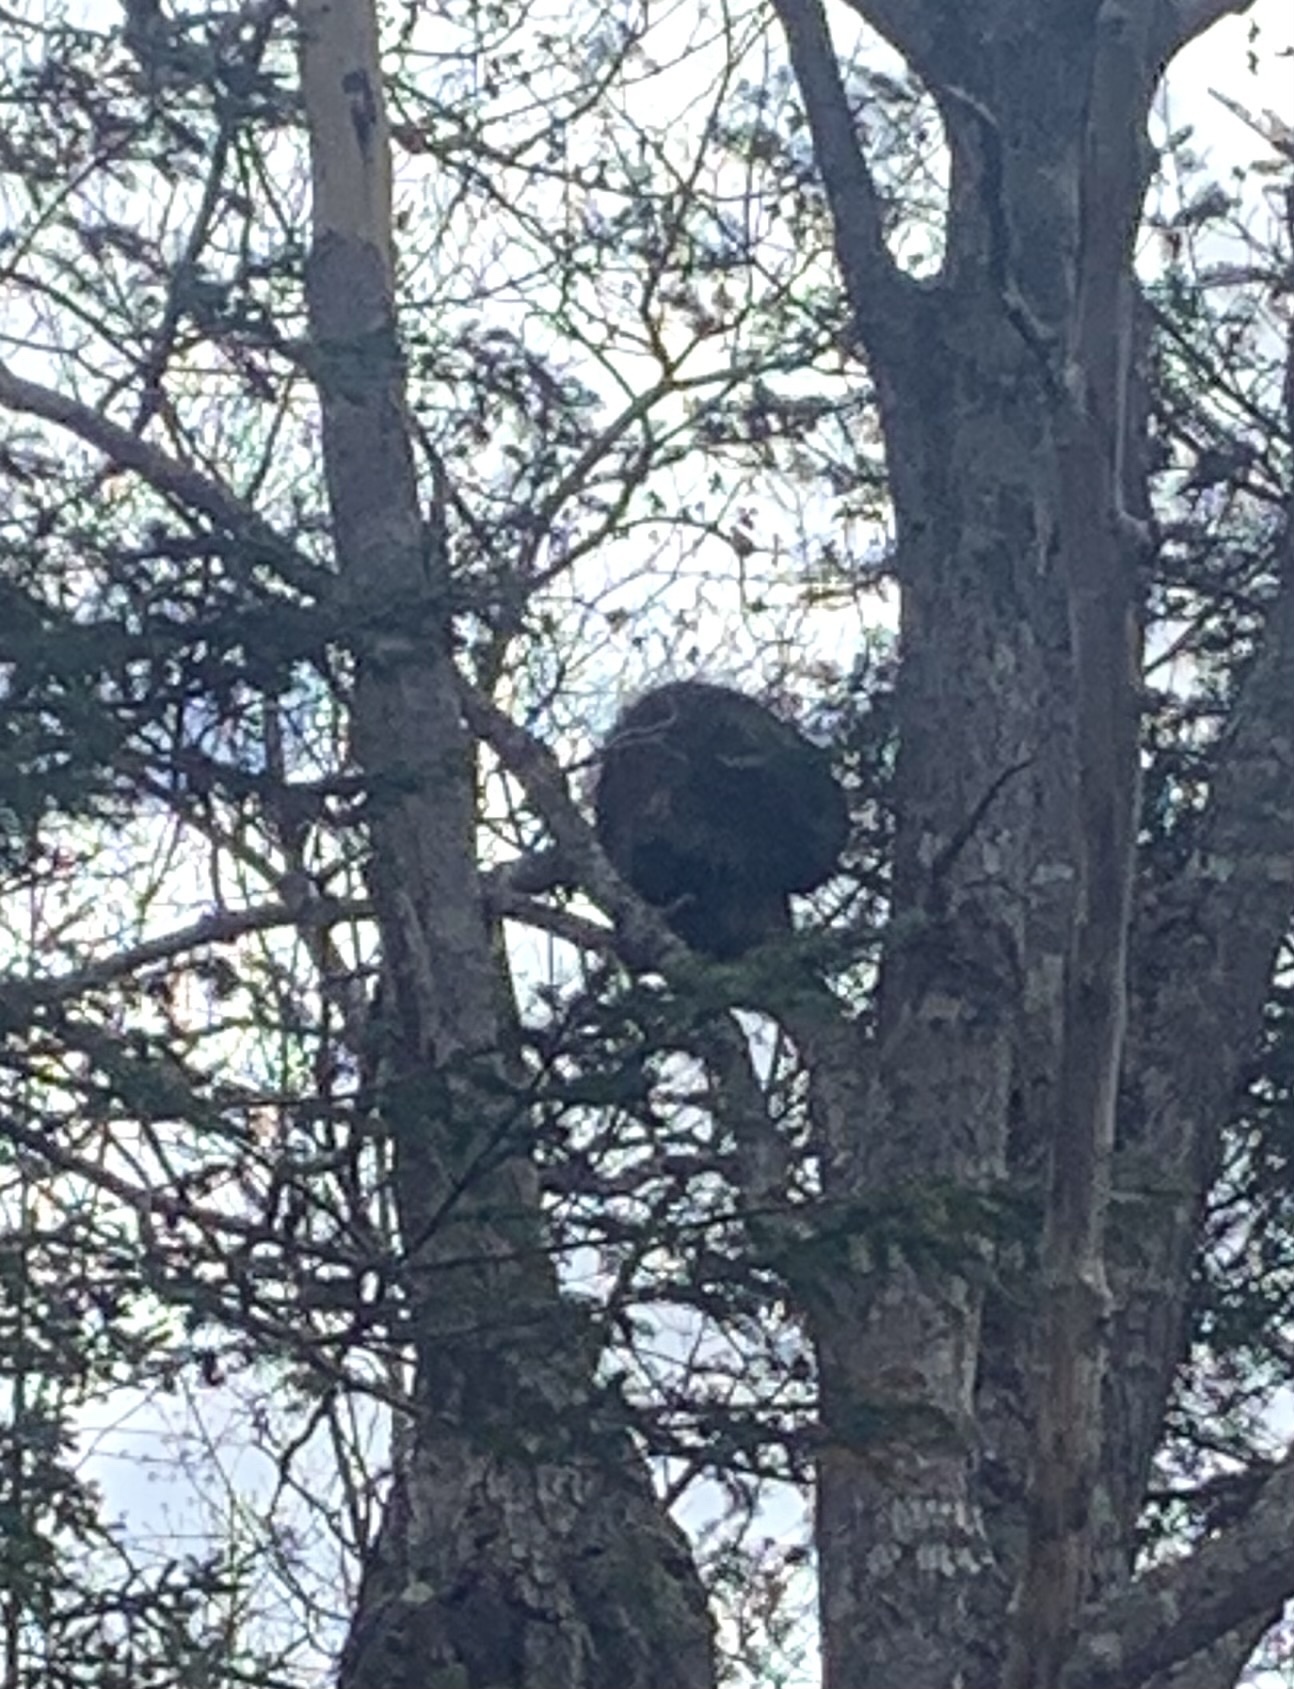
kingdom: Animalia
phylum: Chordata
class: Mammalia
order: Rodentia
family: Erethizontidae
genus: Erethizon
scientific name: Erethizon dorsatus
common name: North american porcupine
